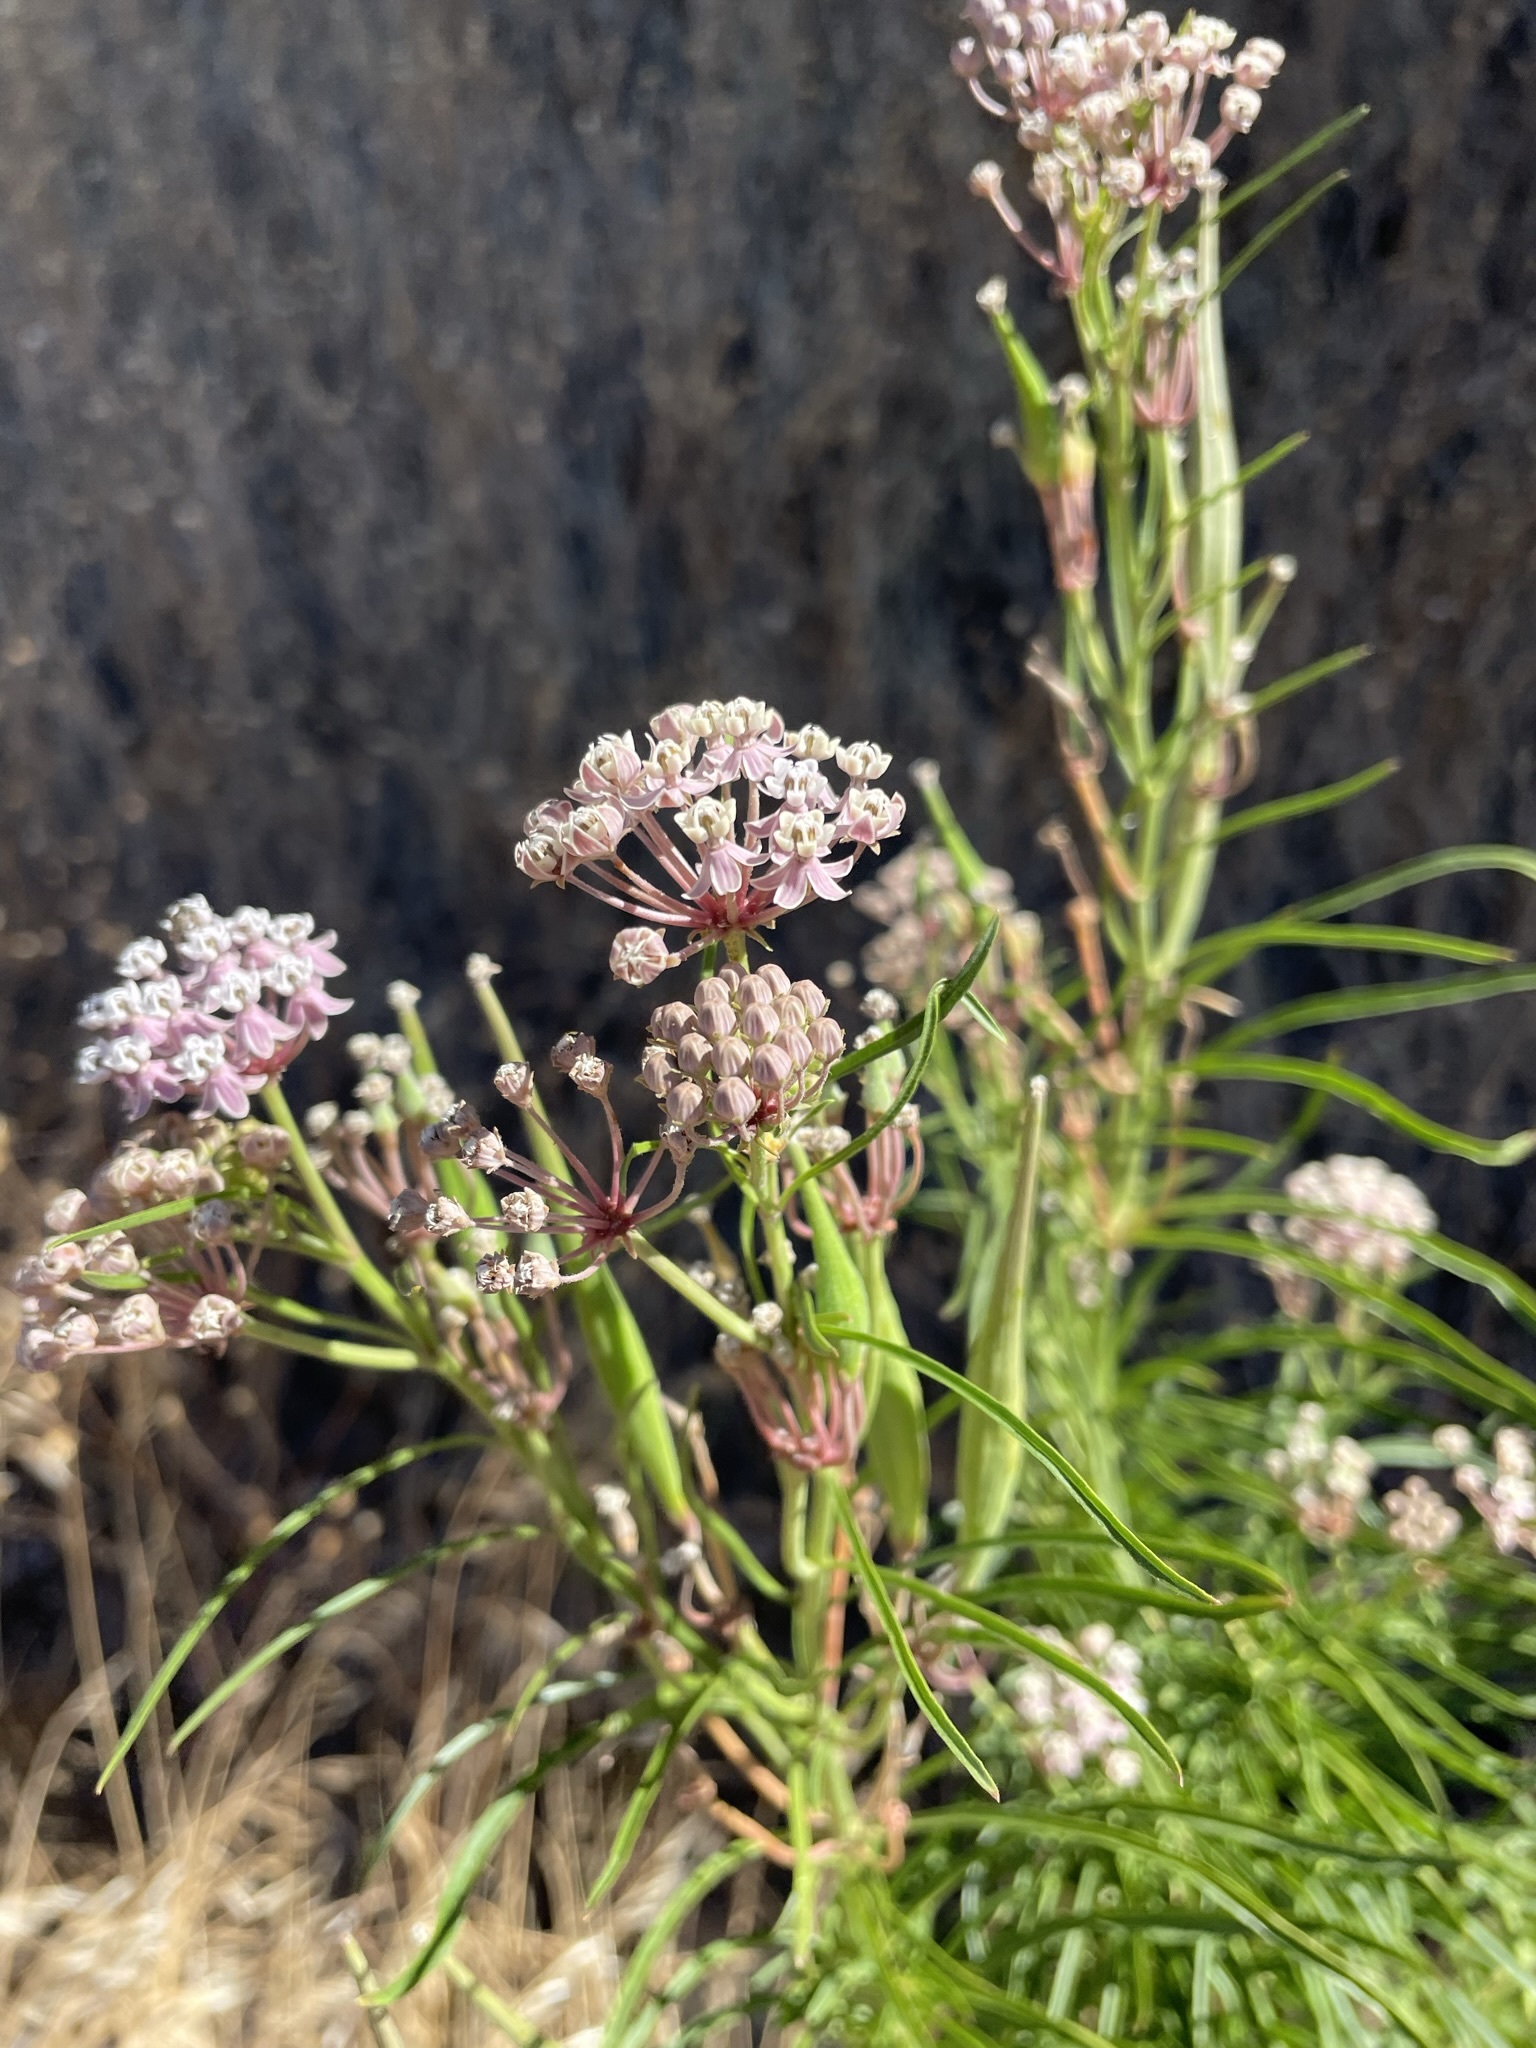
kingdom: Plantae
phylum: Tracheophyta
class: Magnoliopsida
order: Gentianales
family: Apocynaceae
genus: Asclepias
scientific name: Asclepias fascicularis
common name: Mexican milkweed
